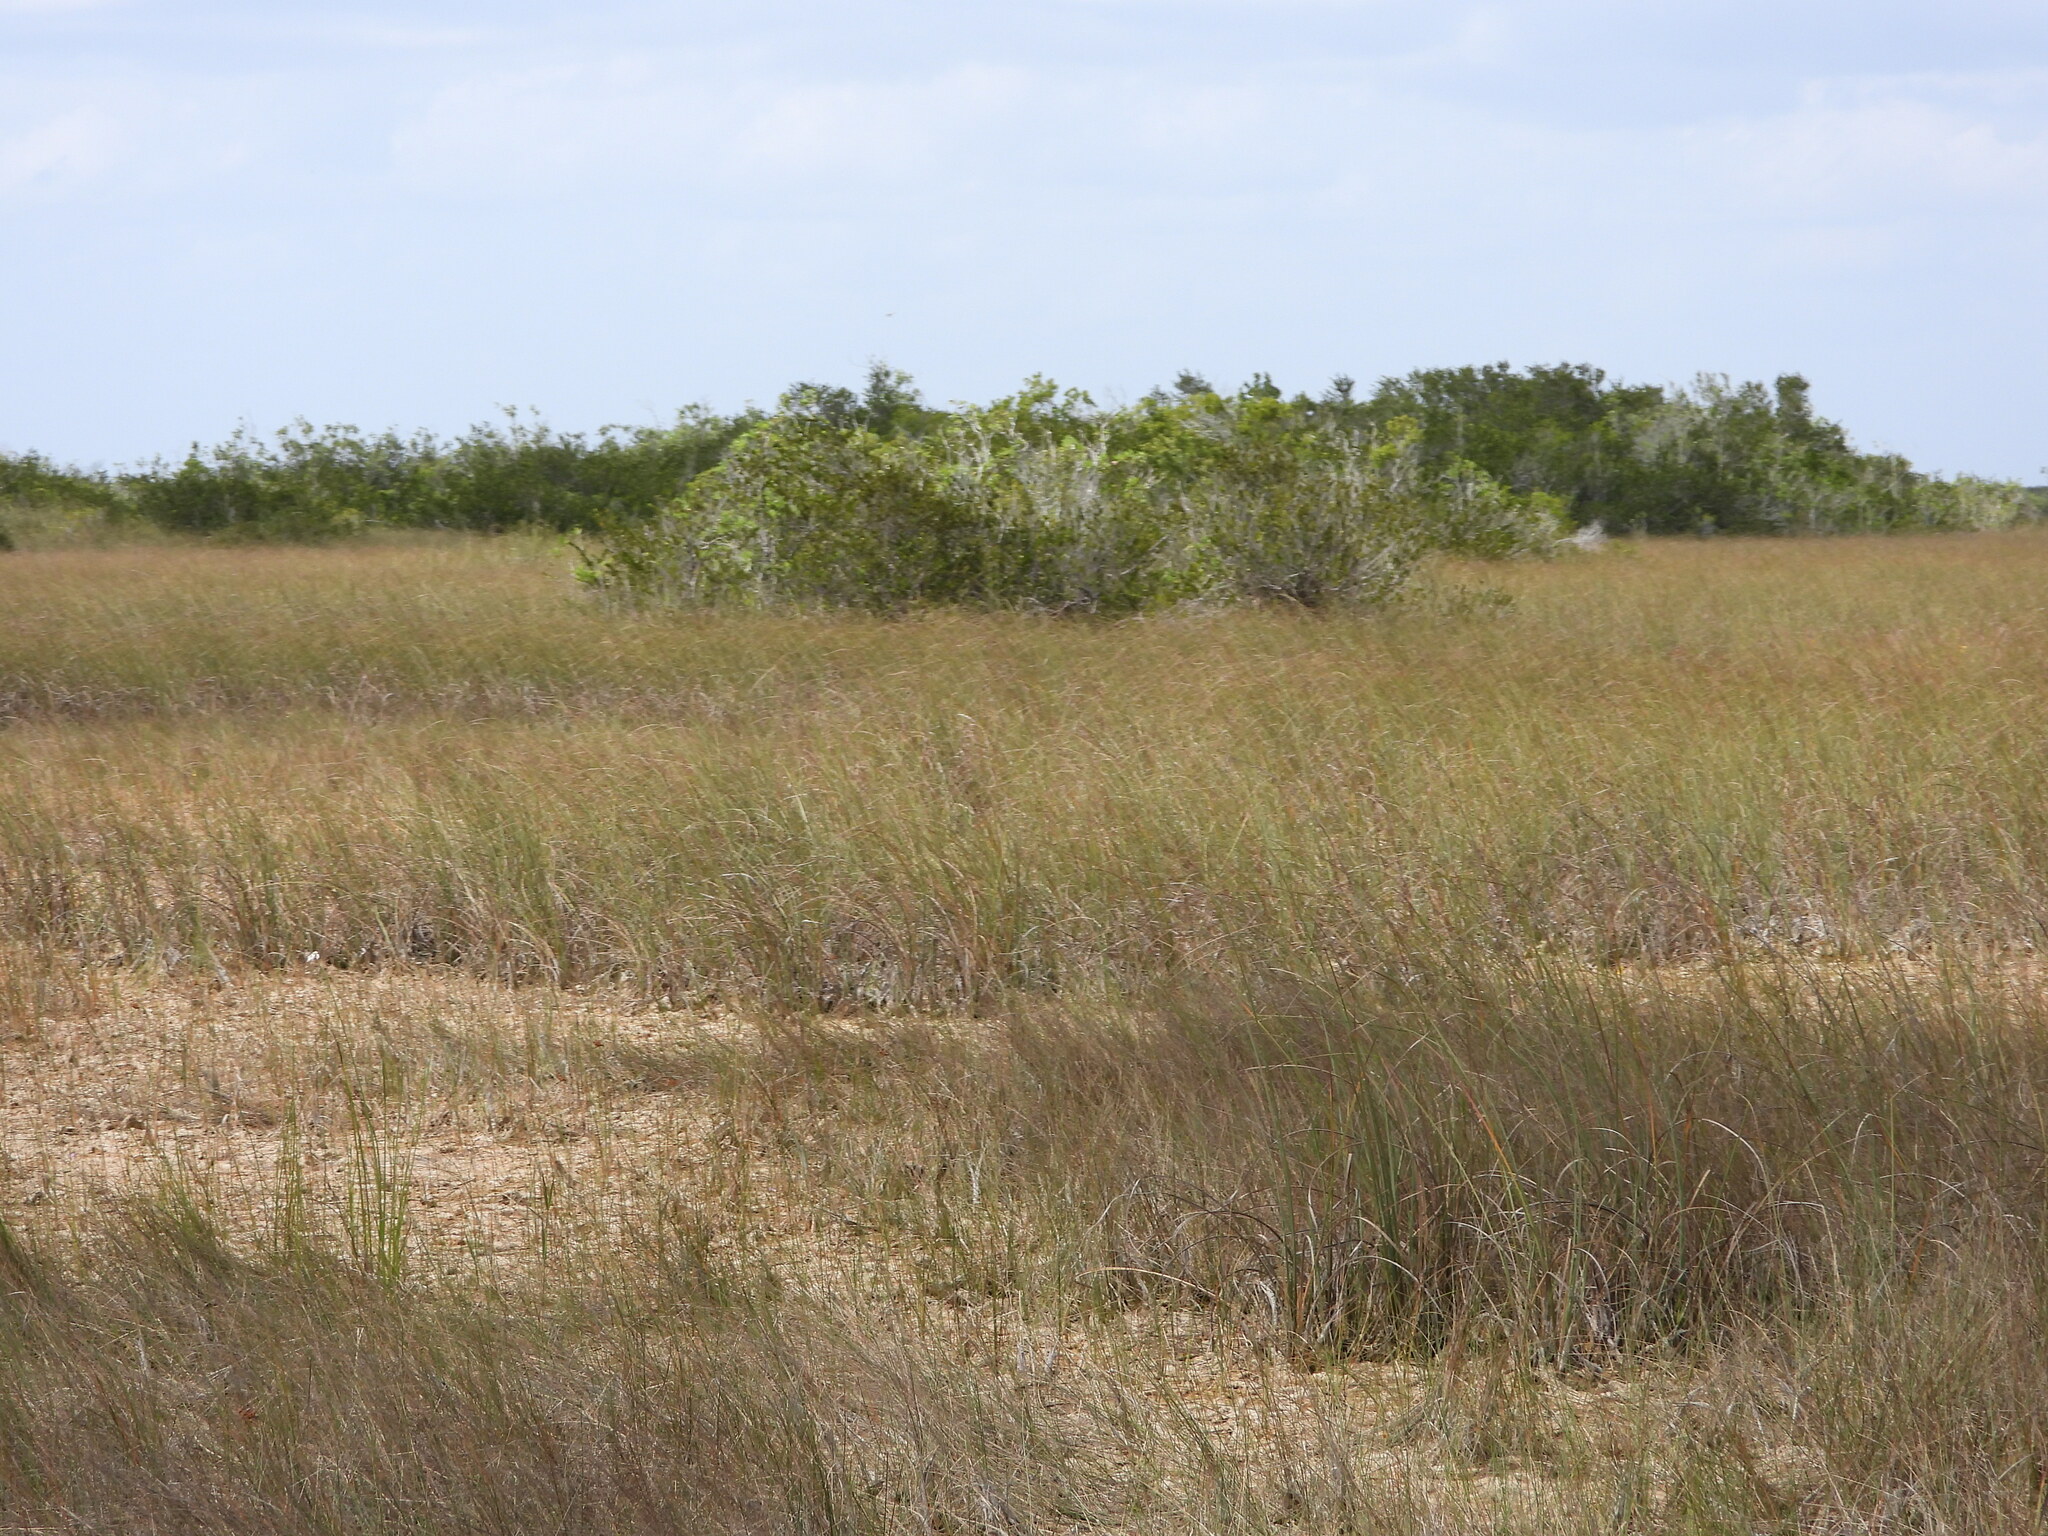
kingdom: Plantae
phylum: Tracheophyta
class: Liliopsida
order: Poales
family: Cyperaceae
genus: Cladium
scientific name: Cladium mariscus
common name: Great fen-sedge
